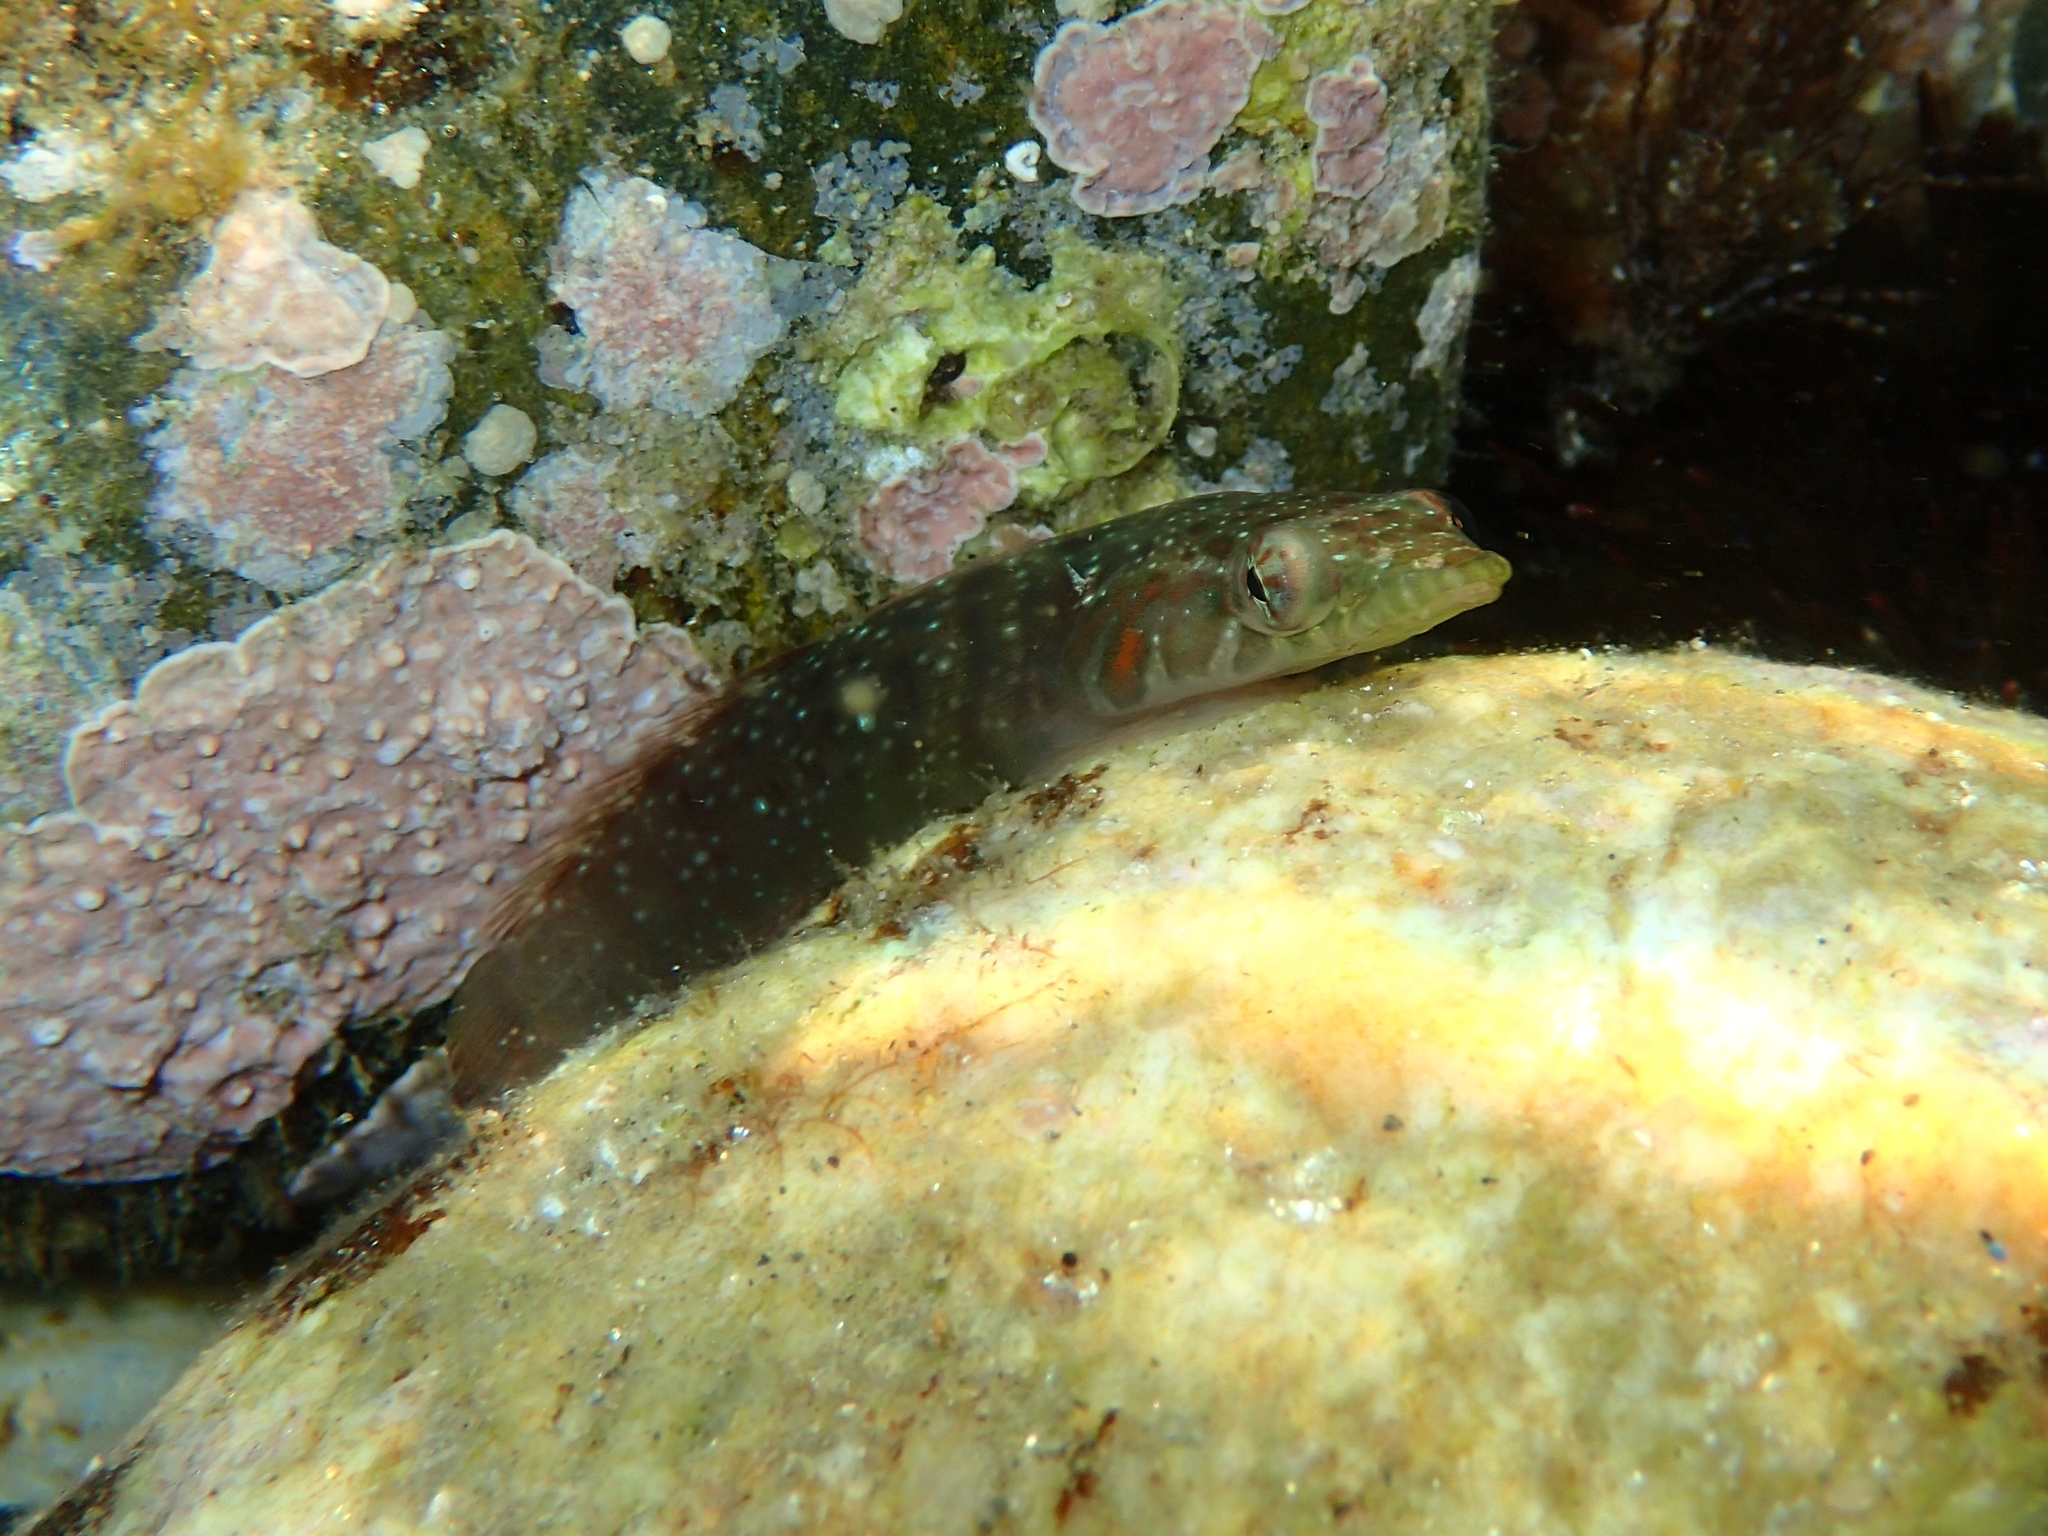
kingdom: Animalia
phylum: Chordata
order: Gobiesociformes
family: Gobiesocidae
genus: Lepadogaster
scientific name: Lepadogaster candolii
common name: Connemarra clingfish
